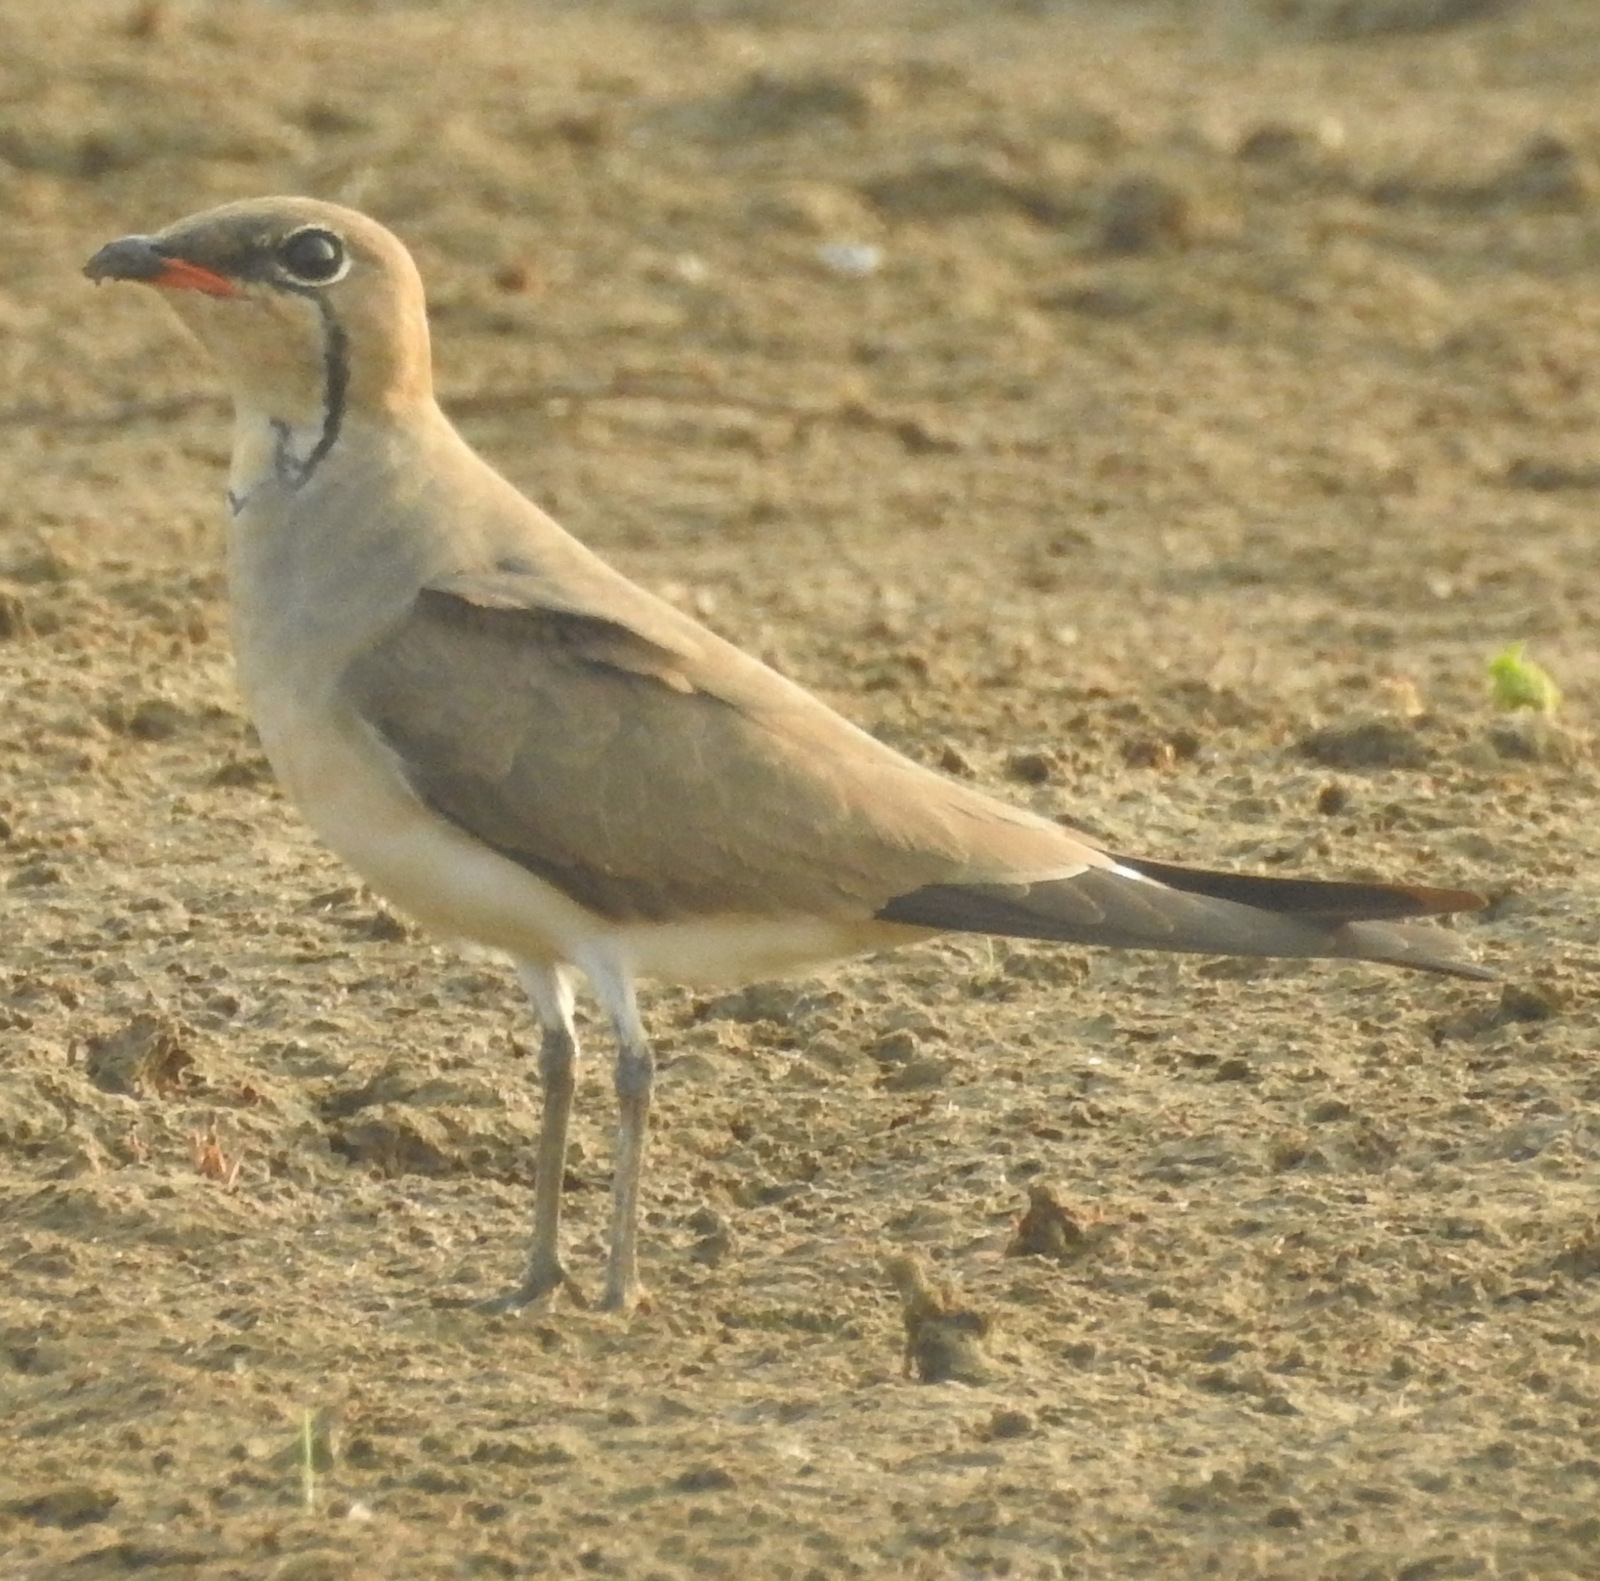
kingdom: Animalia
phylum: Chordata
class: Aves
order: Charadriiformes
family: Glareolidae
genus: Glareola
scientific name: Glareola pratincola
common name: Collared pratincole
